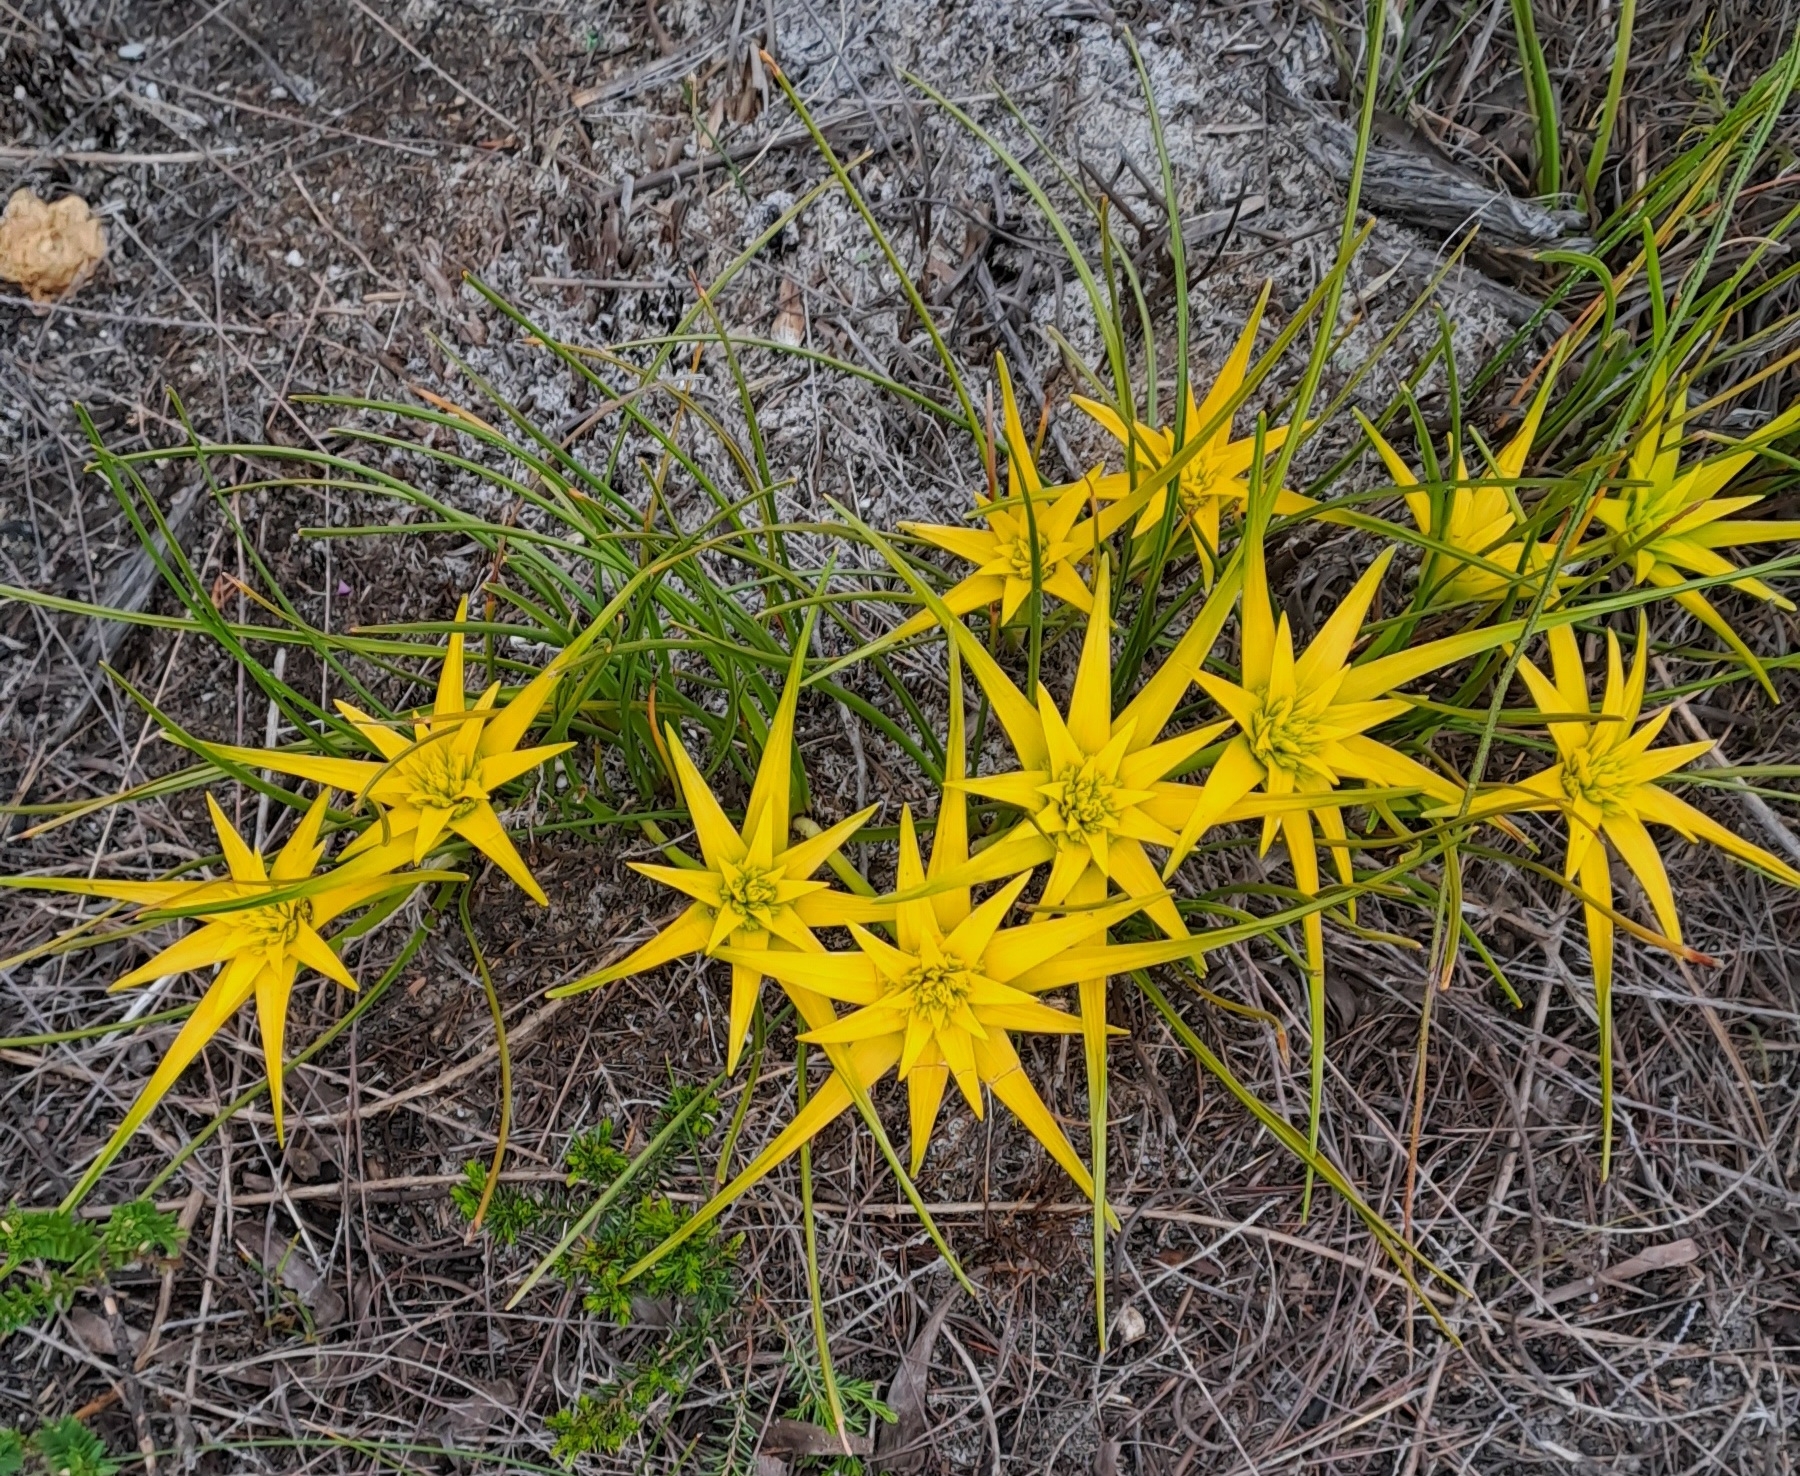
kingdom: Plantae
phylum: Tracheophyta
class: Liliopsida
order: Poales
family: Cyperaceae
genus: Ficinia
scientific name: Ficinia radiata
